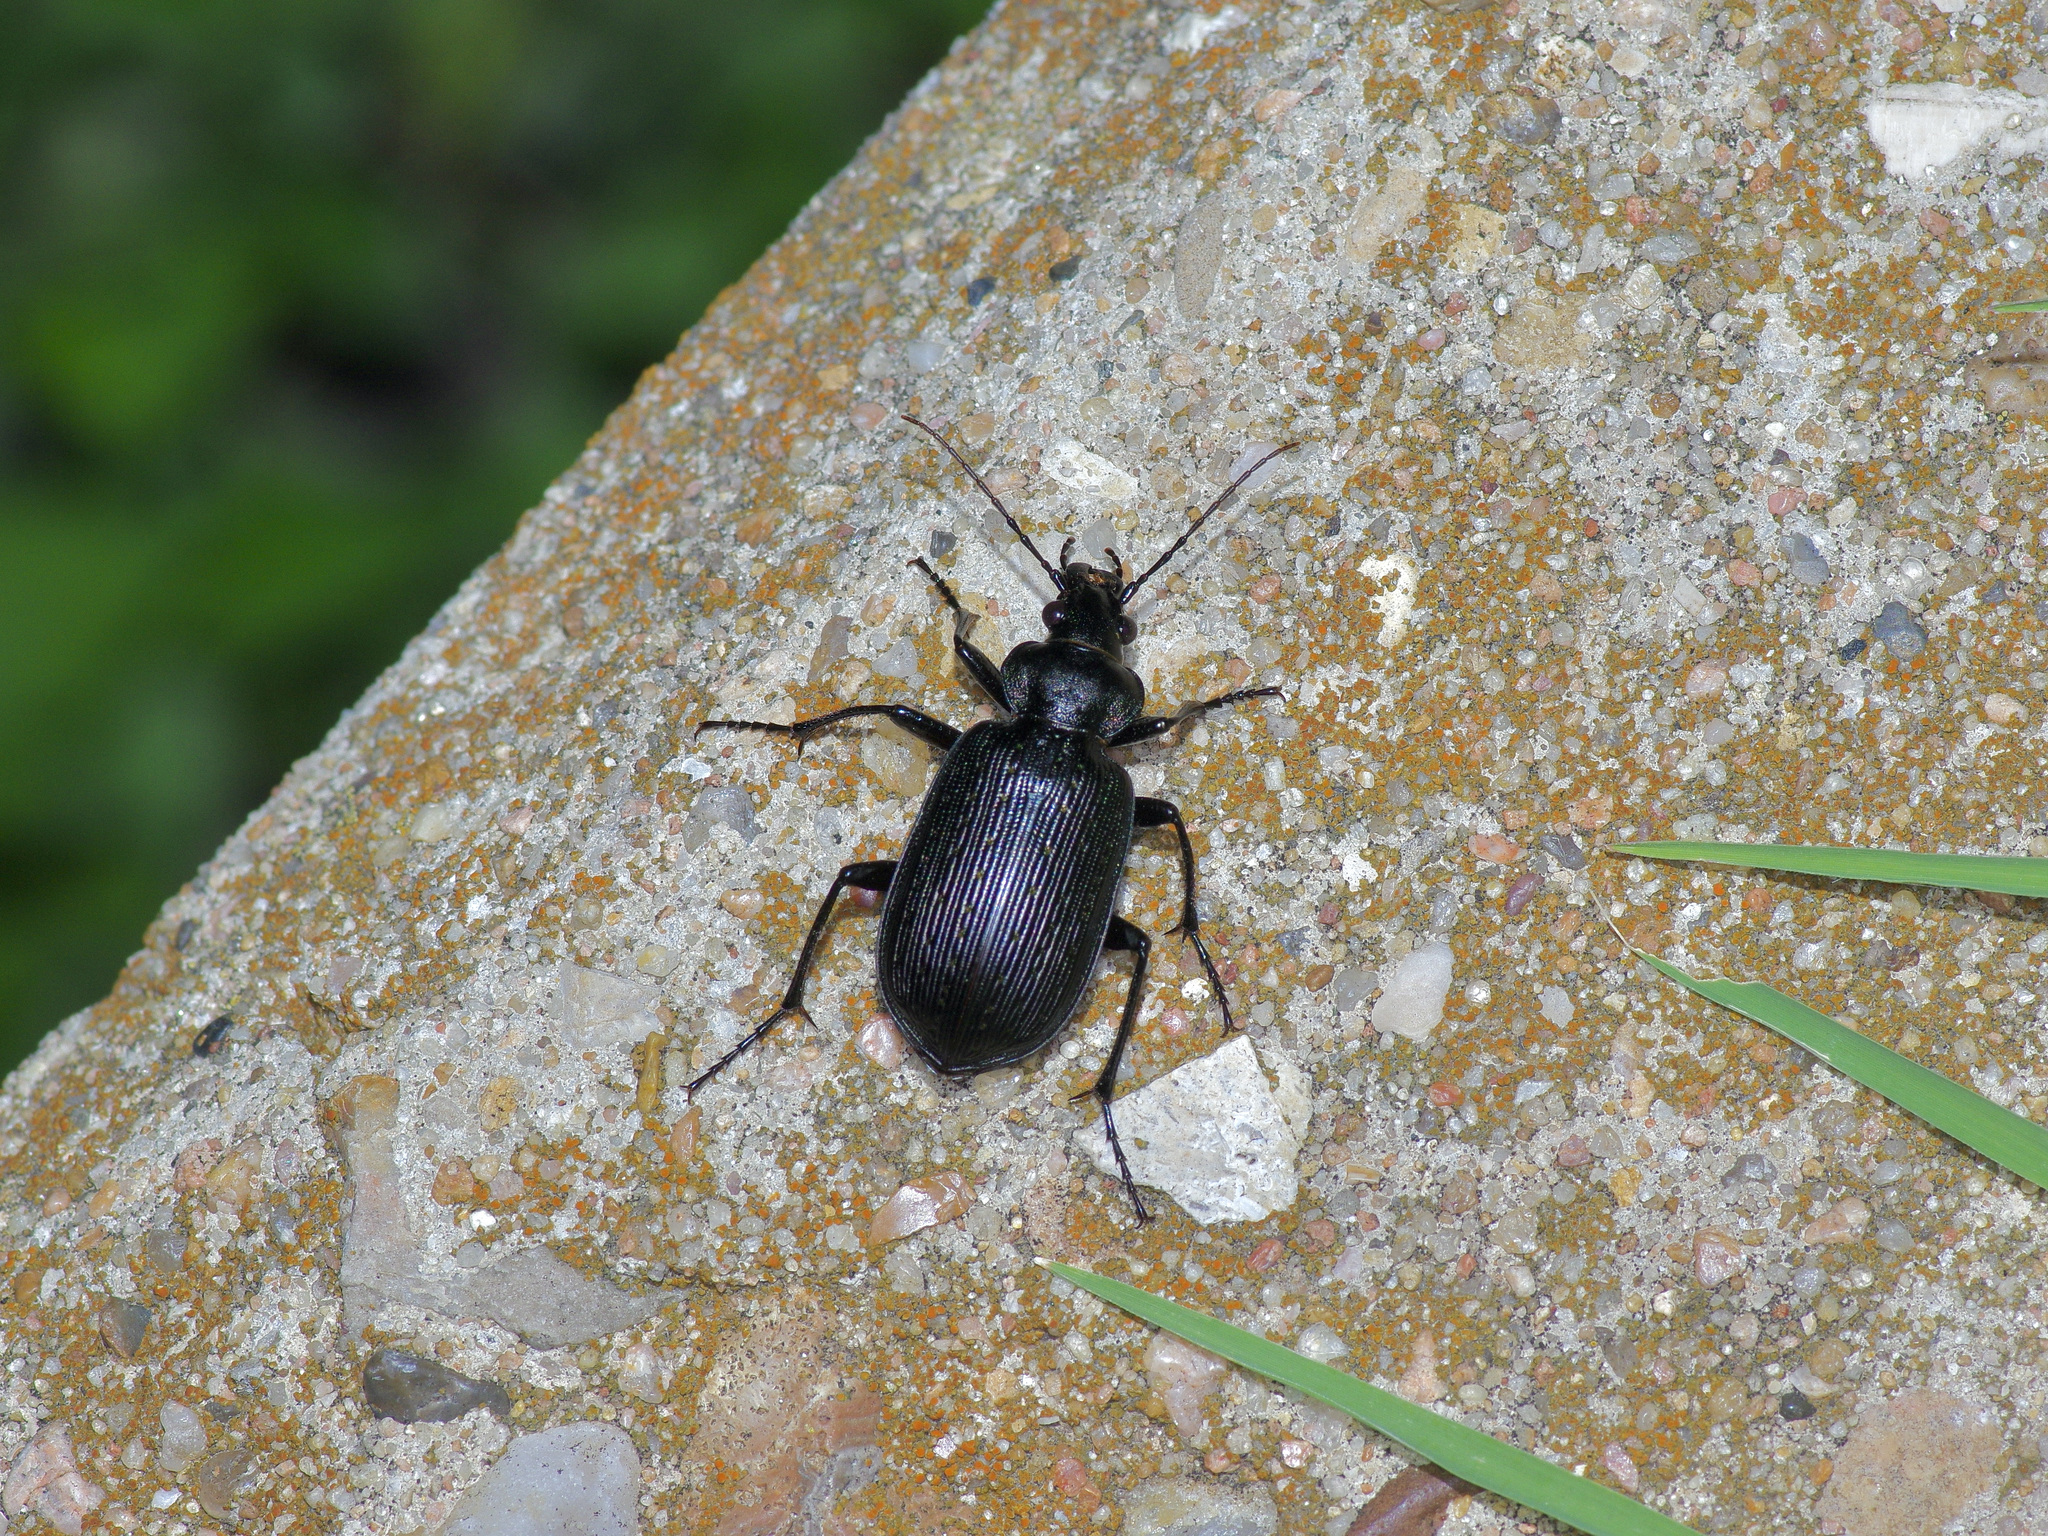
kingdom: Animalia
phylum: Arthropoda
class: Insecta
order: Coleoptera
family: Carabidae
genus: Calosoma
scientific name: Calosoma sayi
